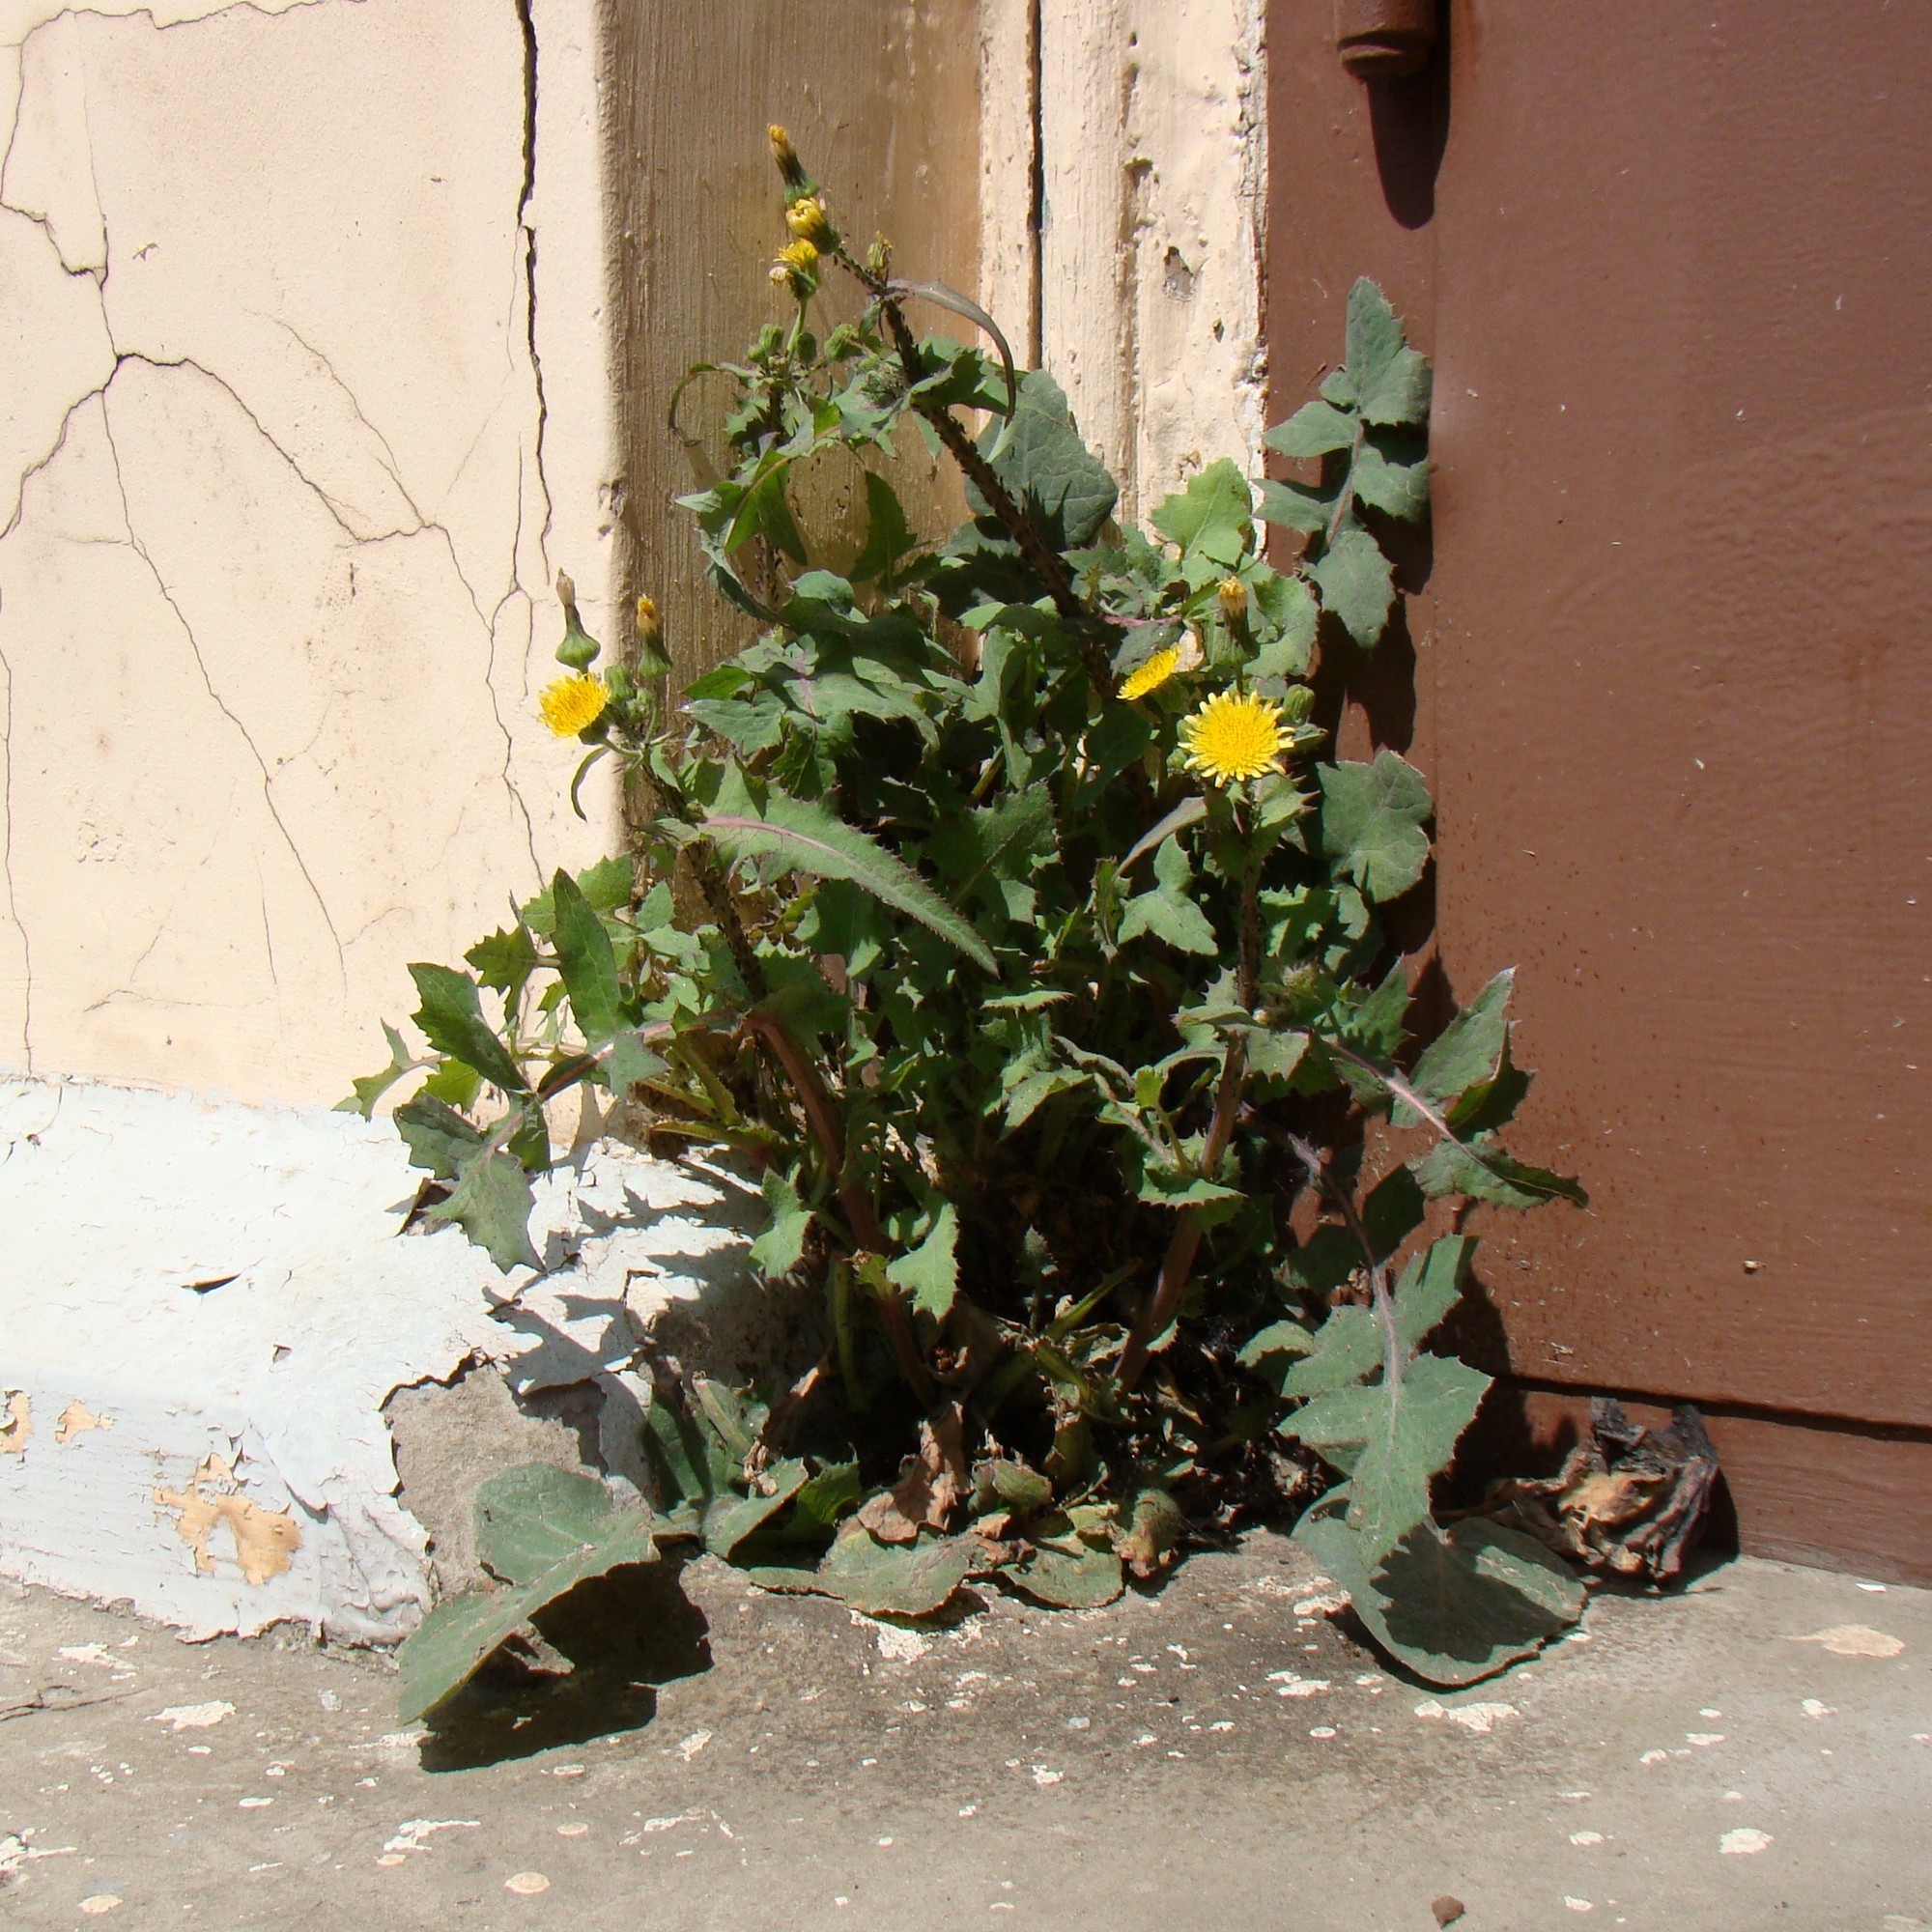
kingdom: Plantae
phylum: Tracheophyta
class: Magnoliopsida
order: Asterales
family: Asteraceae
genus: Sonchus
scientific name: Sonchus oleraceus
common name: Common sowthistle
